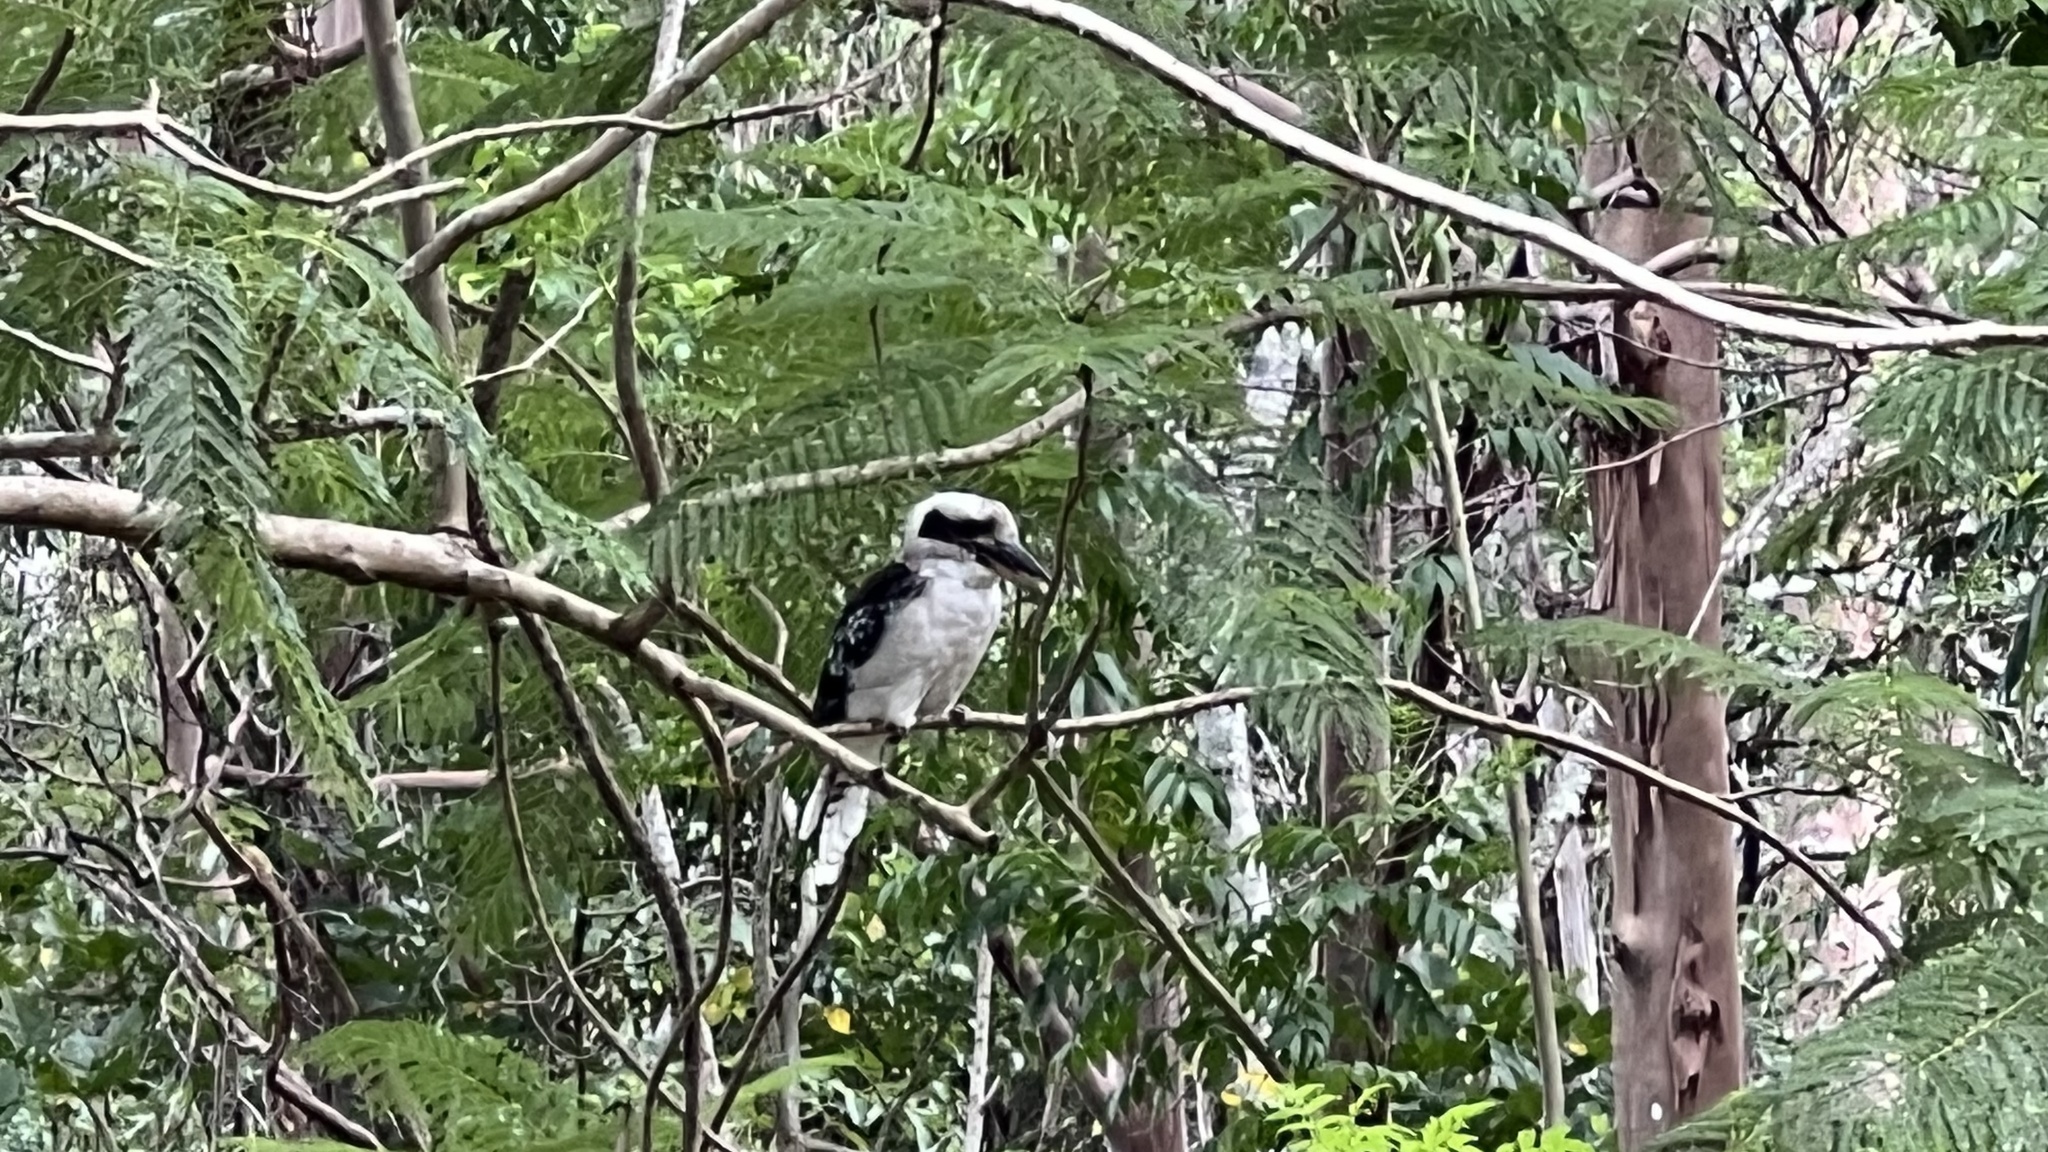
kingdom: Animalia
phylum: Chordata
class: Aves
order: Coraciiformes
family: Alcedinidae
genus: Dacelo
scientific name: Dacelo novaeguineae
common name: Laughing kookaburra
